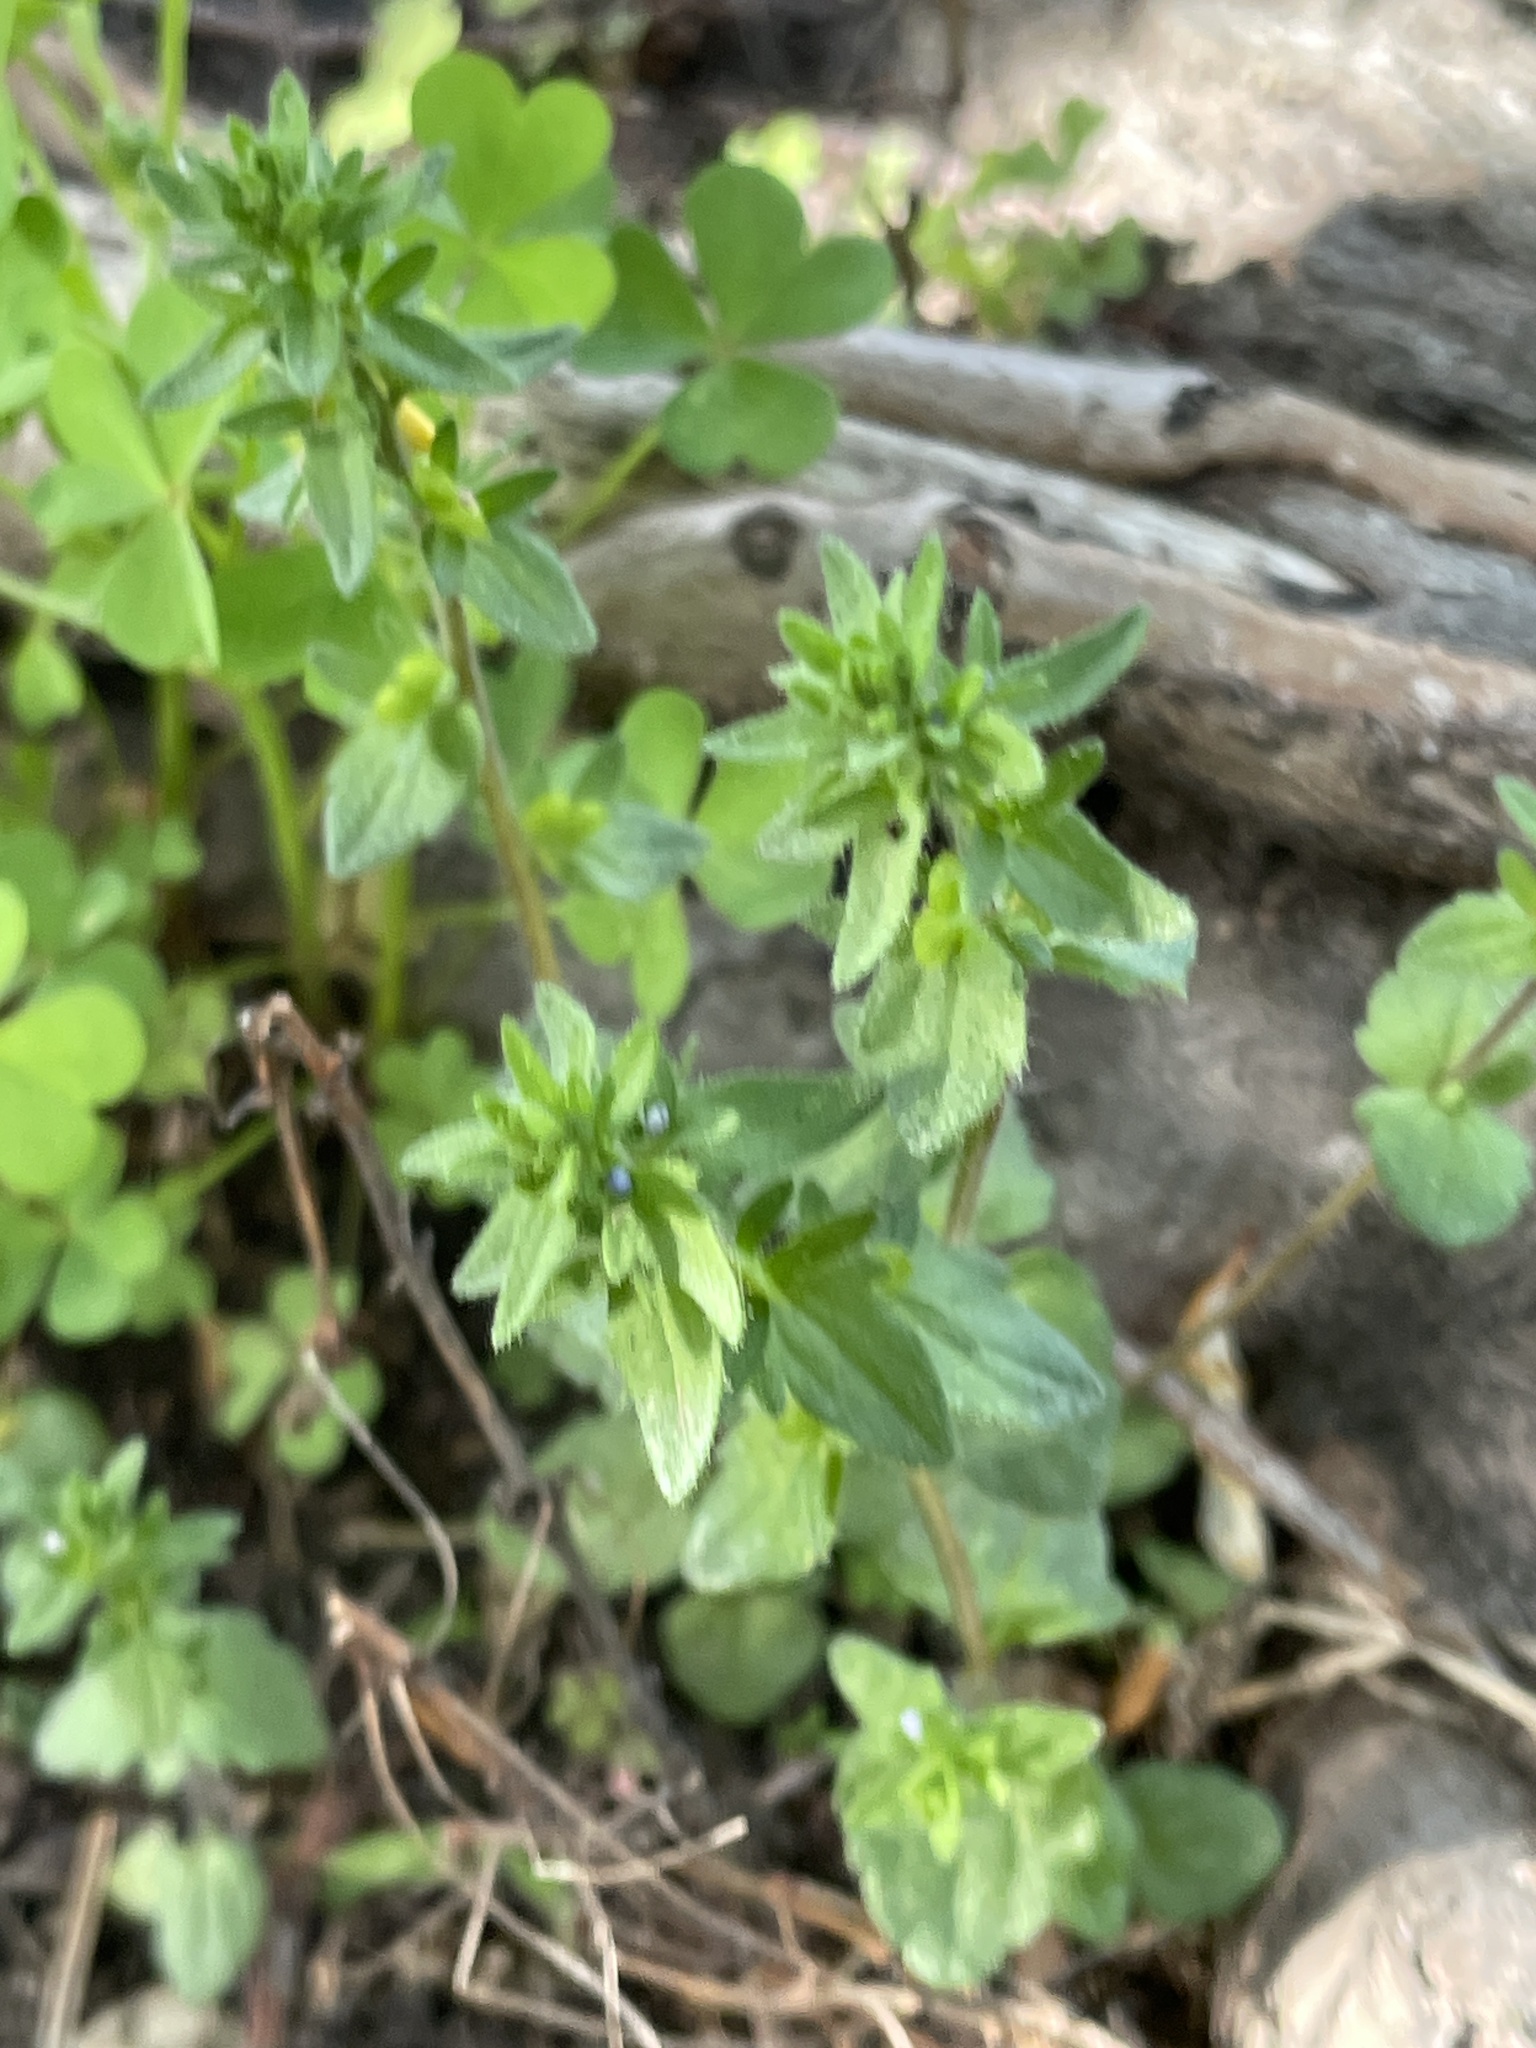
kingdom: Plantae
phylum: Tracheophyta
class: Magnoliopsida
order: Lamiales
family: Plantaginaceae
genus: Veronica
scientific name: Veronica arvensis
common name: Corn speedwell
